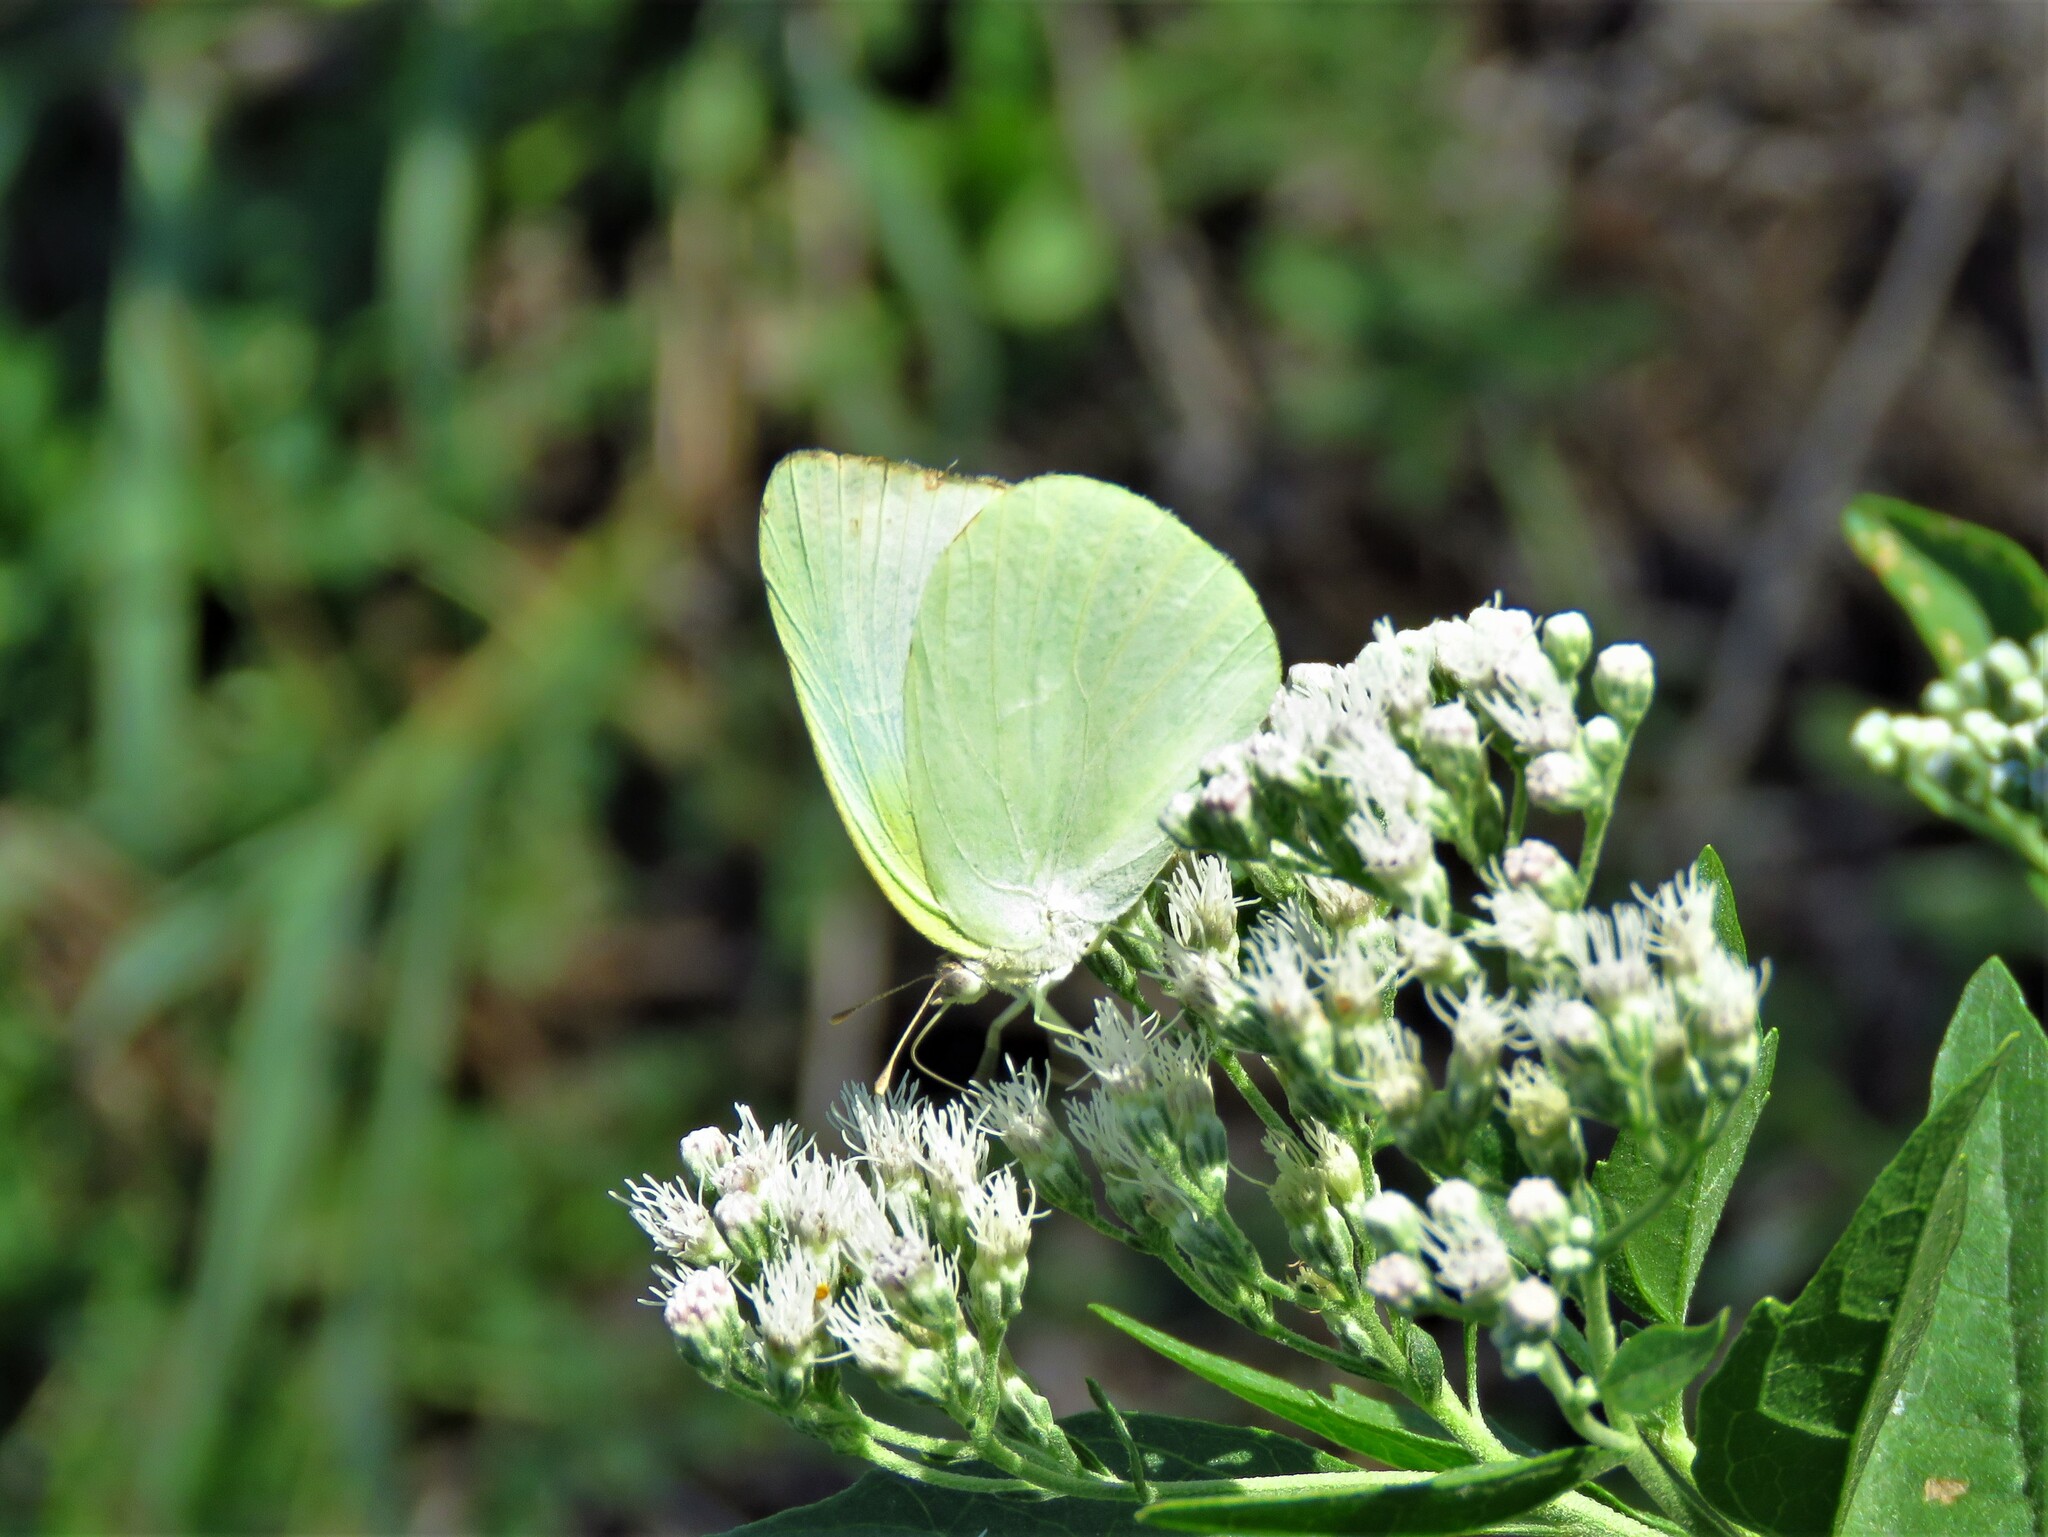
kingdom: Animalia
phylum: Arthropoda
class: Insecta
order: Lepidoptera
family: Pieridae
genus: Kricogonia
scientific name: Kricogonia lyside
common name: Guayacan sulphur,
